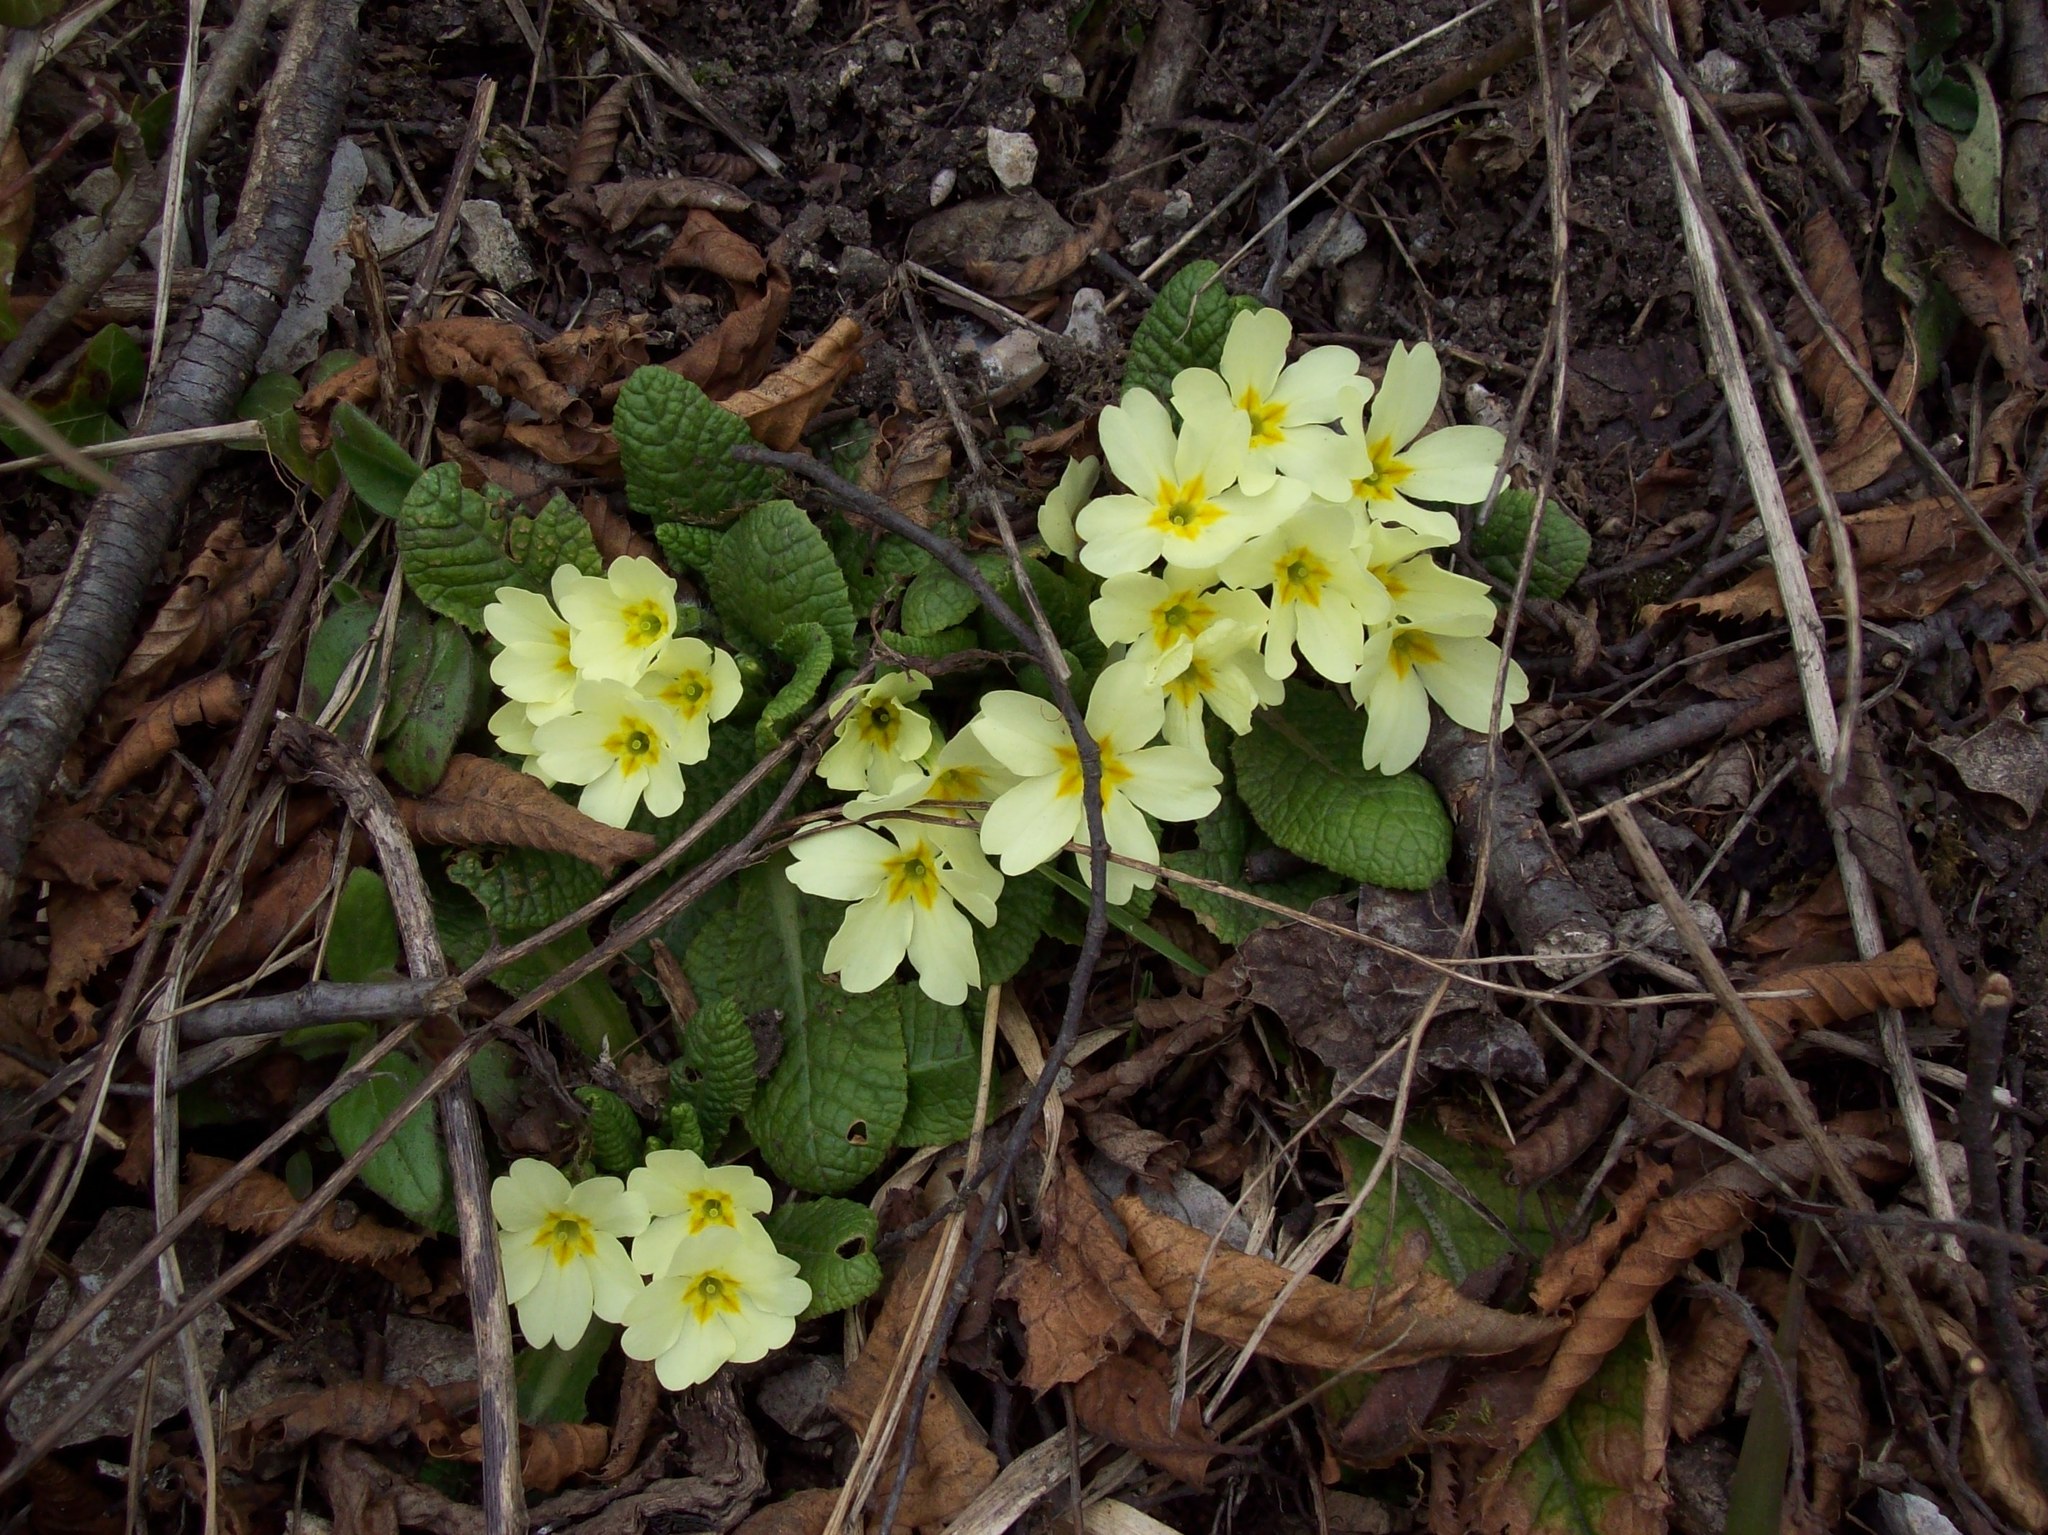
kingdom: Plantae
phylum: Tracheophyta
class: Magnoliopsida
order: Ericales
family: Primulaceae
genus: Primula
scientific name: Primula vulgaris
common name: Primrose
